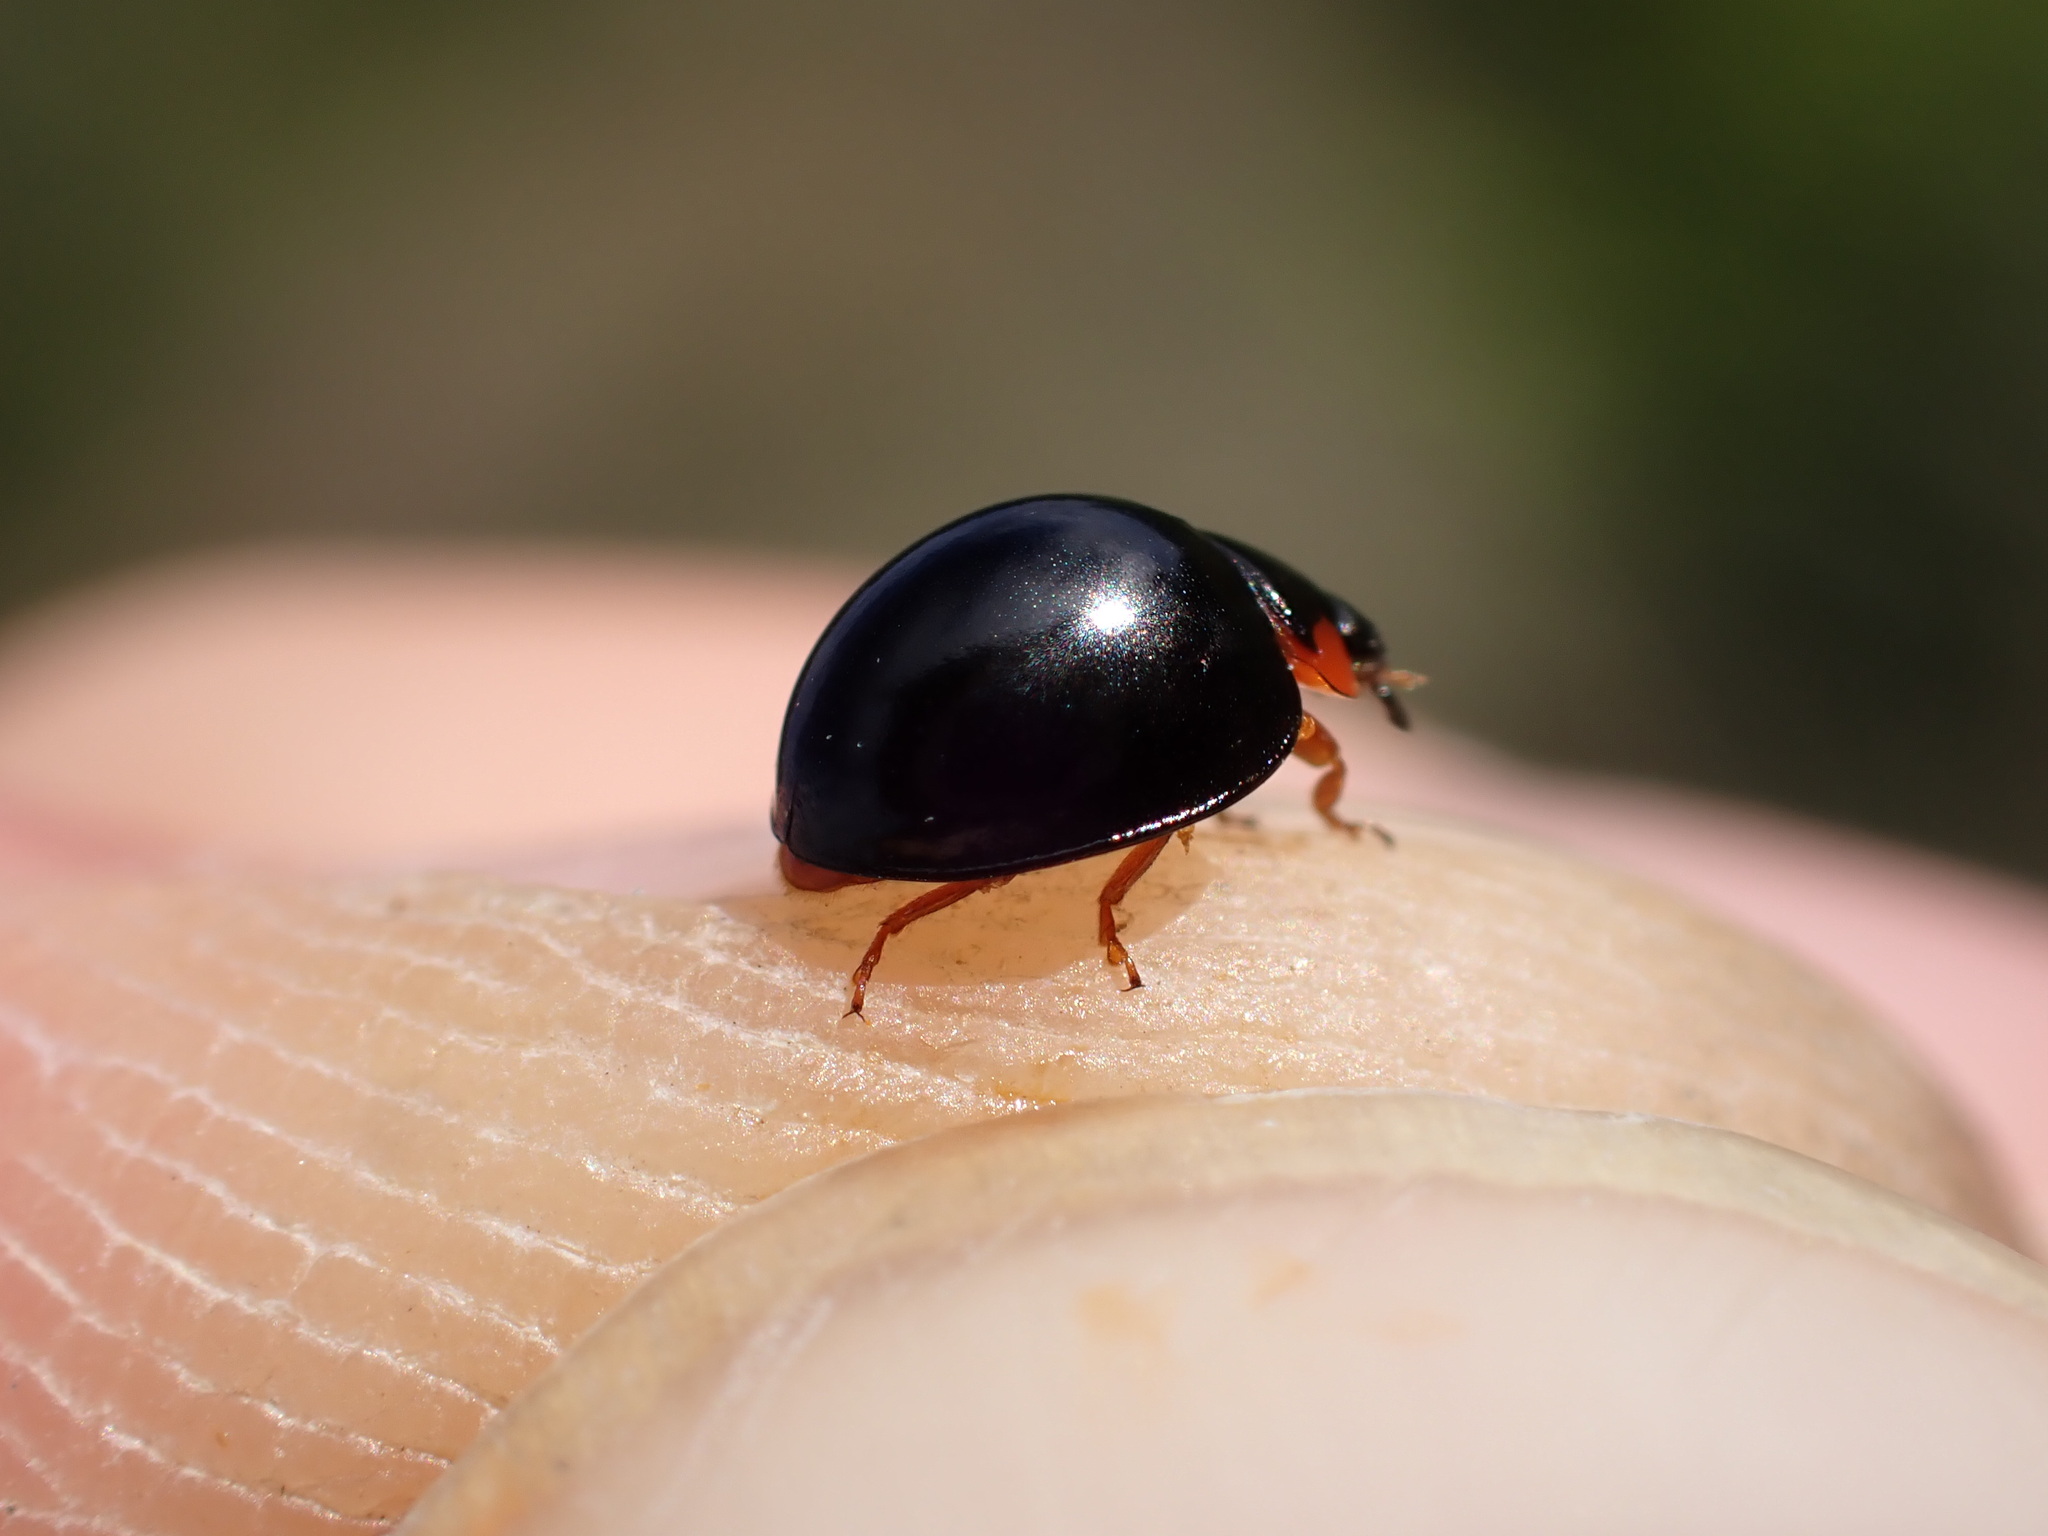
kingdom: Animalia
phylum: Arthropoda
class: Insecta
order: Coleoptera
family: Coccinellidae
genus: Parexochomus
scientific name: Parexochomus nigromaculatus
